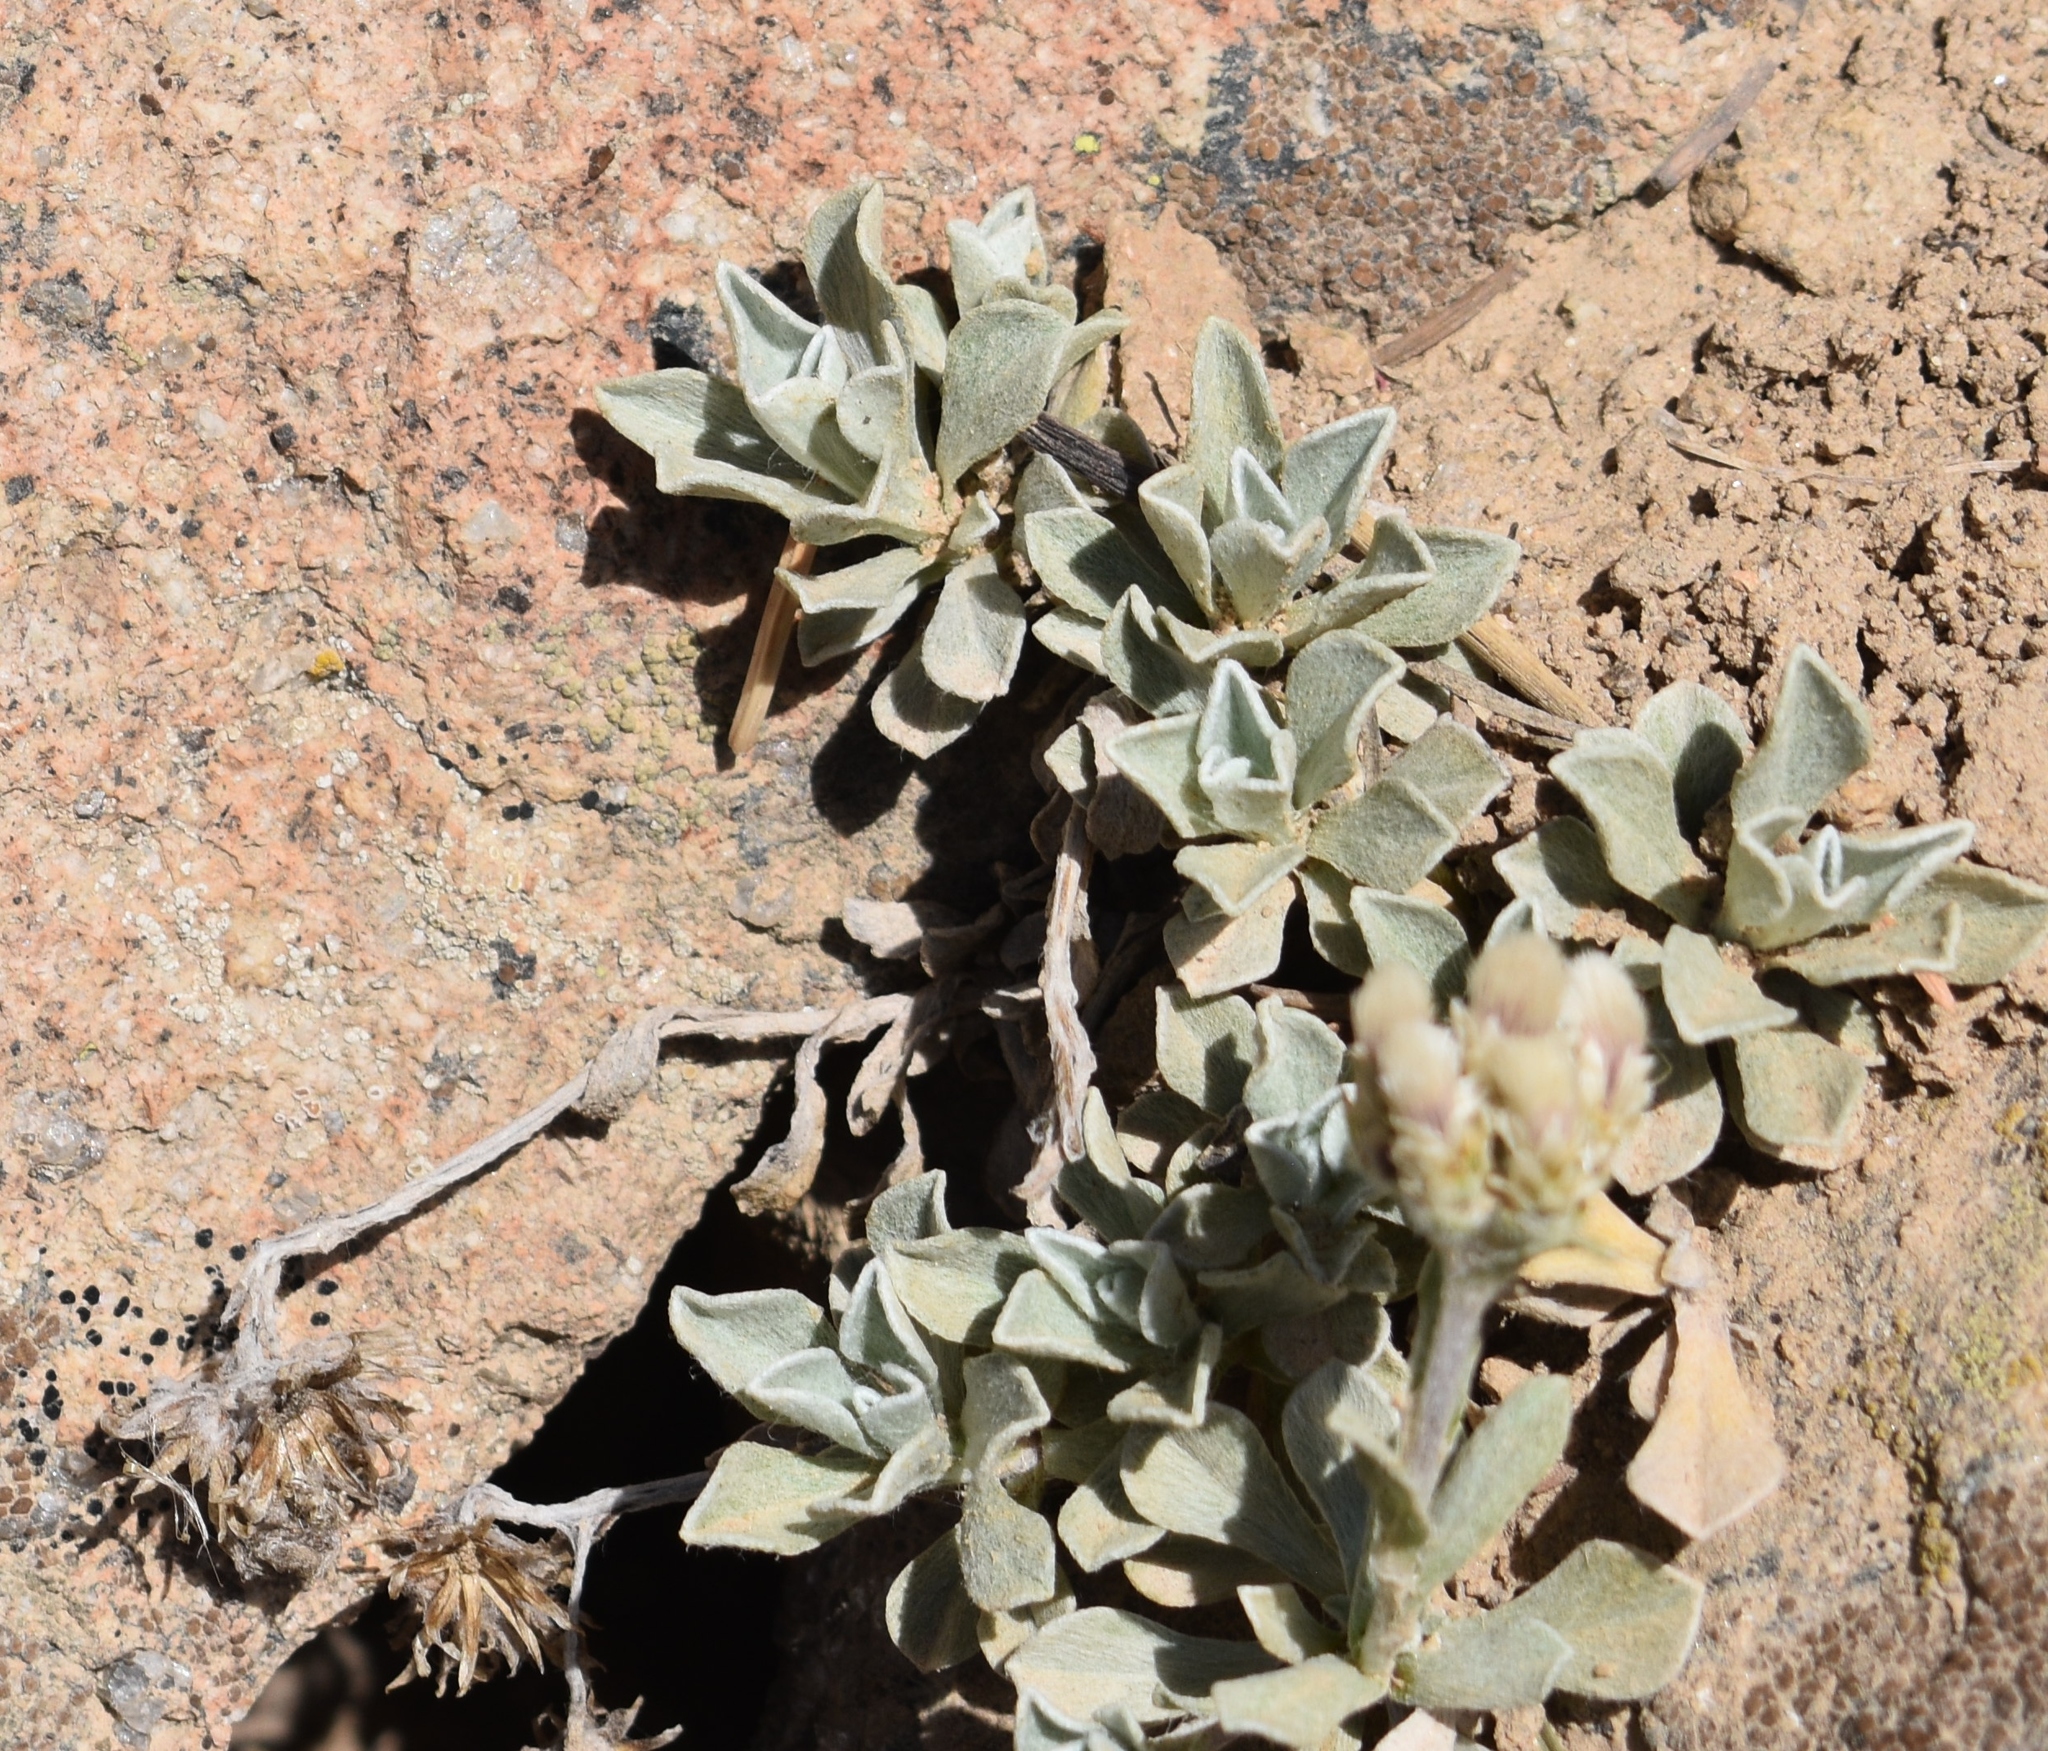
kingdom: Plantae
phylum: Tracheophyta
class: Magnoliopsida
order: Asterales
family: Asteraceae
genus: Antennaria
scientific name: Antennaria parvifolia
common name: Nuttall's pussytoes
